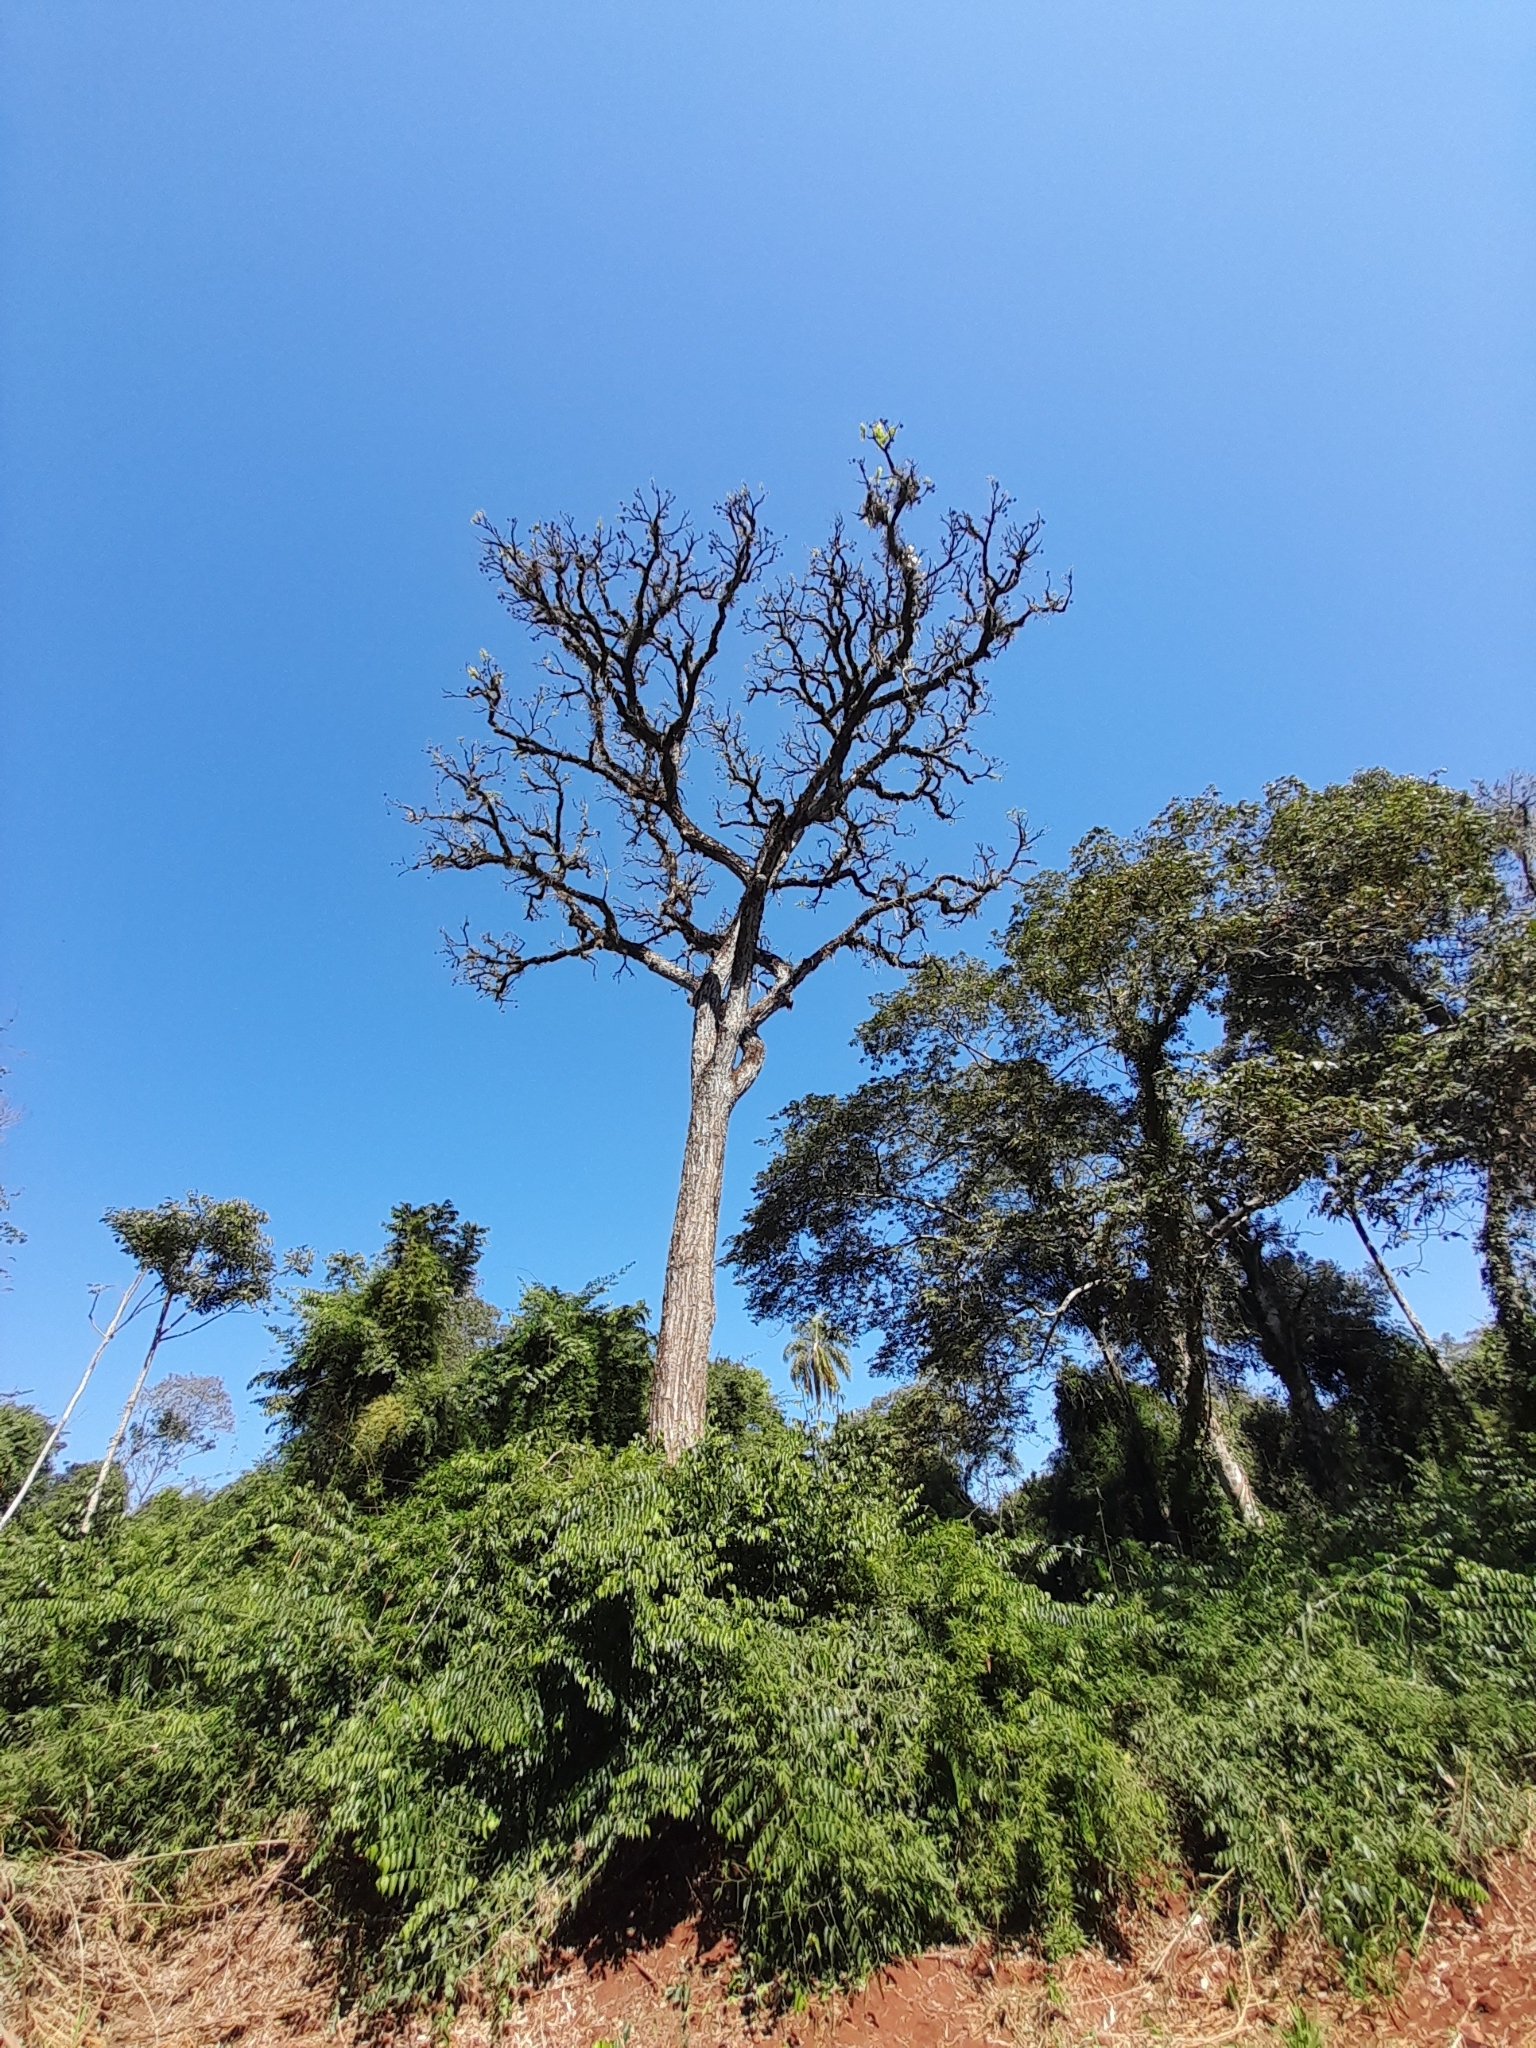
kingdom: Plantae
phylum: Tracheophyta
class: Magnoliopsida
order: Sapindales
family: Meliaceae
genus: Cedrela
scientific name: Cedrela fissilis
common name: Argentine cedar
